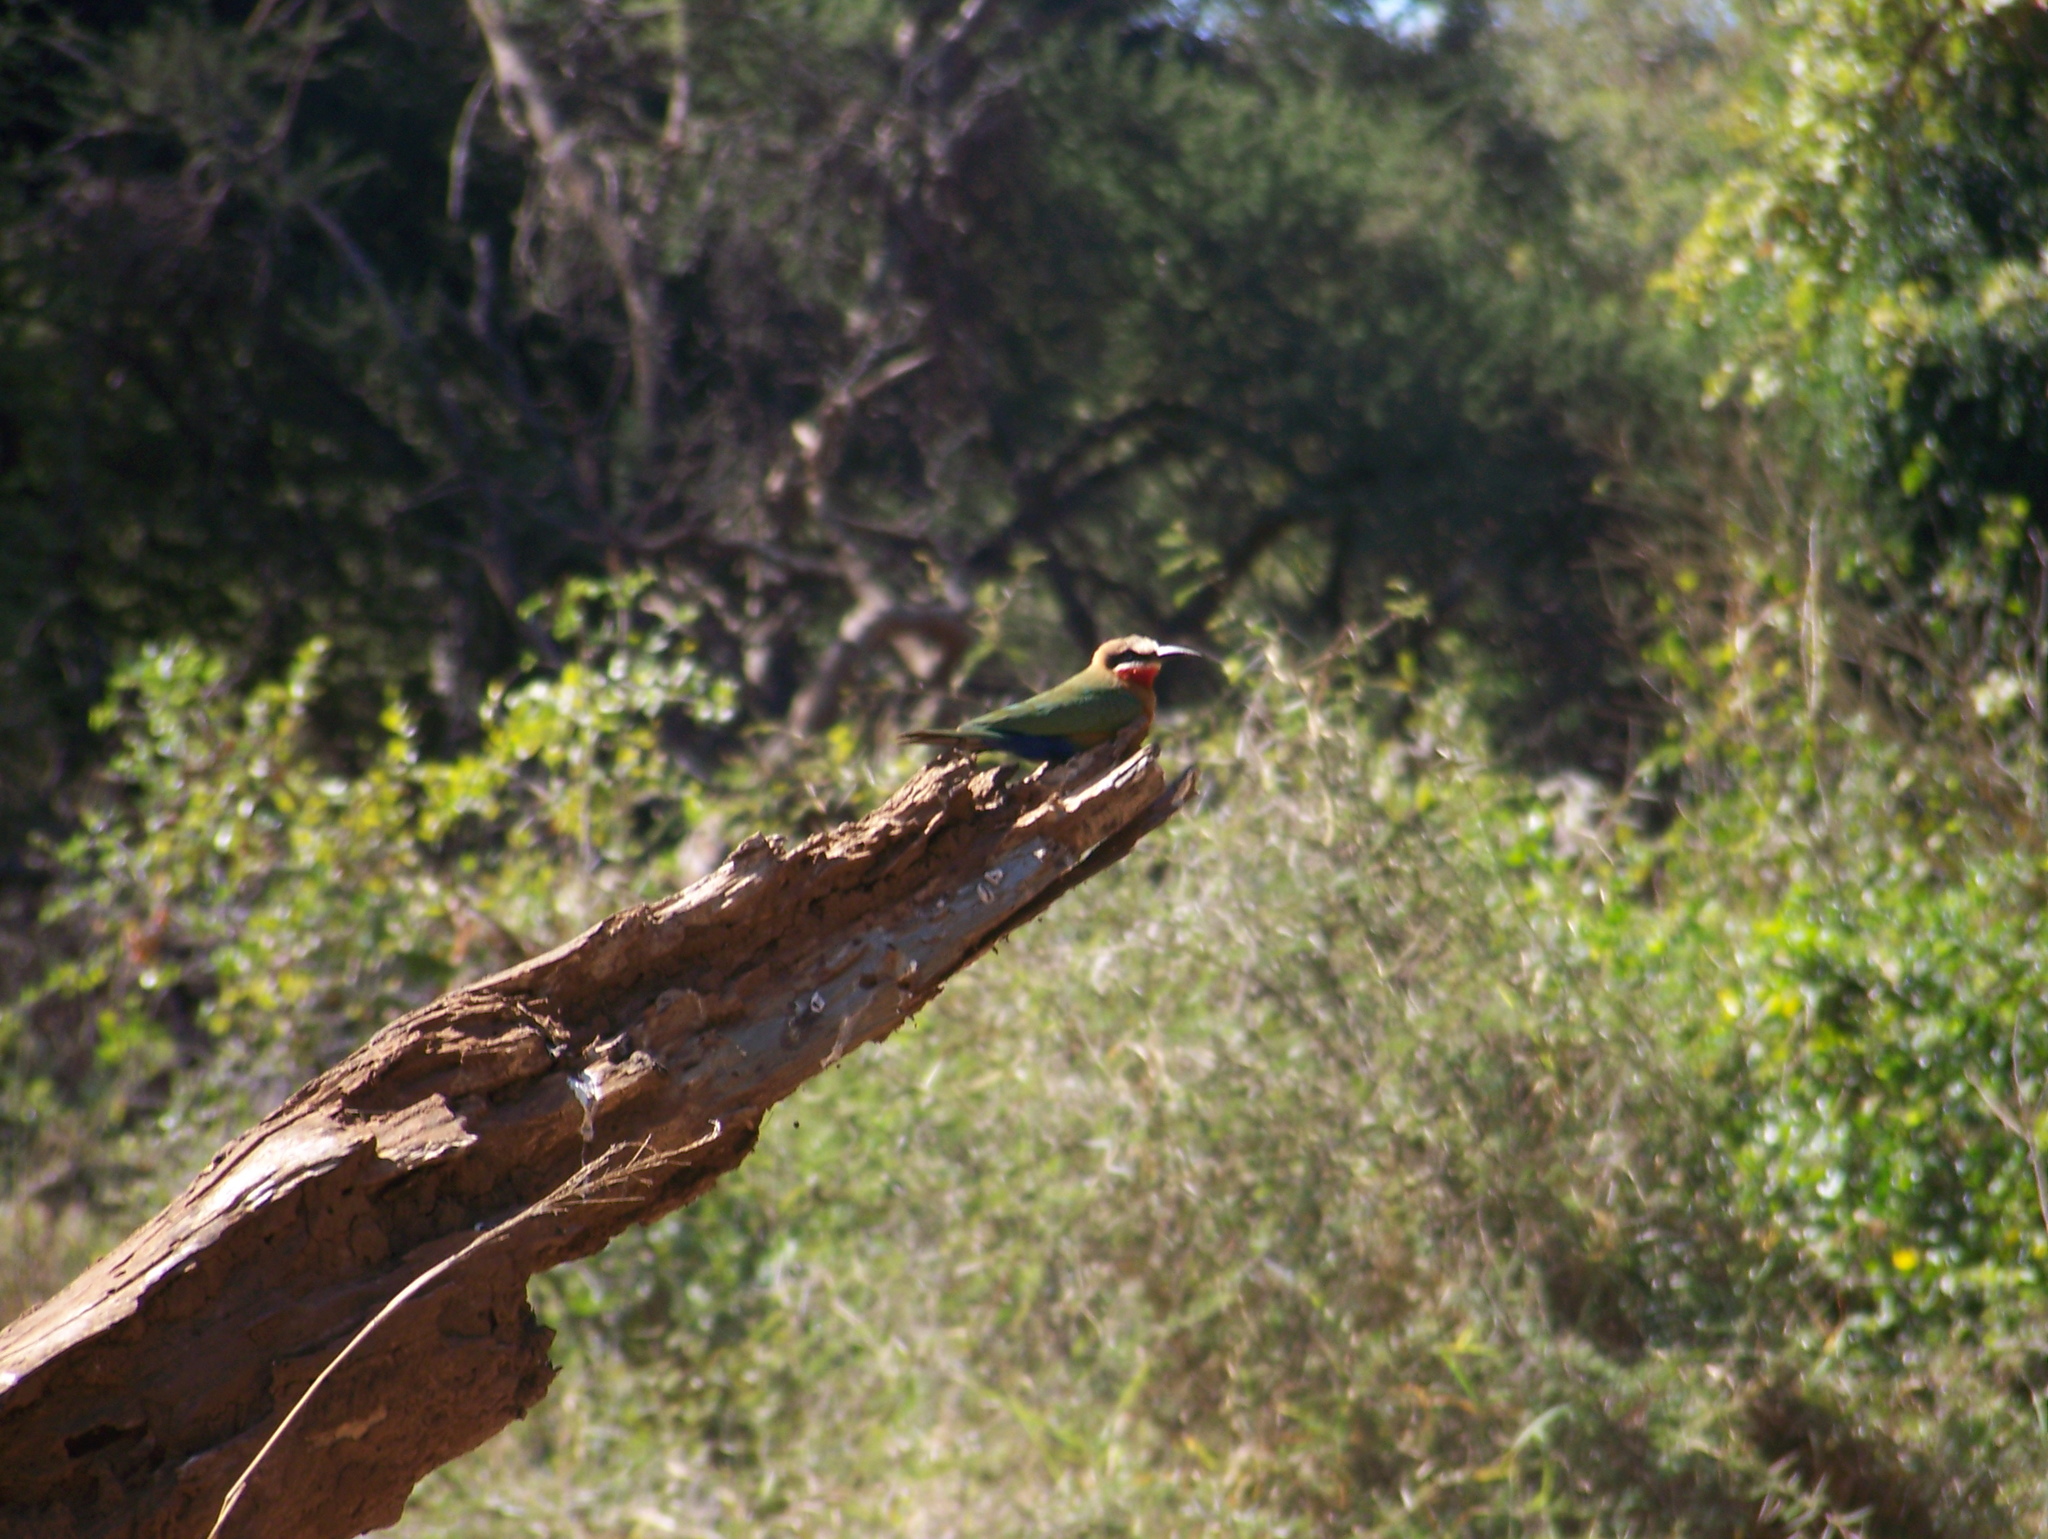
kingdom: Animalia
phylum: Chordata
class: Aves
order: Coraciiformes
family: Meropidae
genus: Merops
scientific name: Merops bullockoides
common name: White-fronted bee-eater
